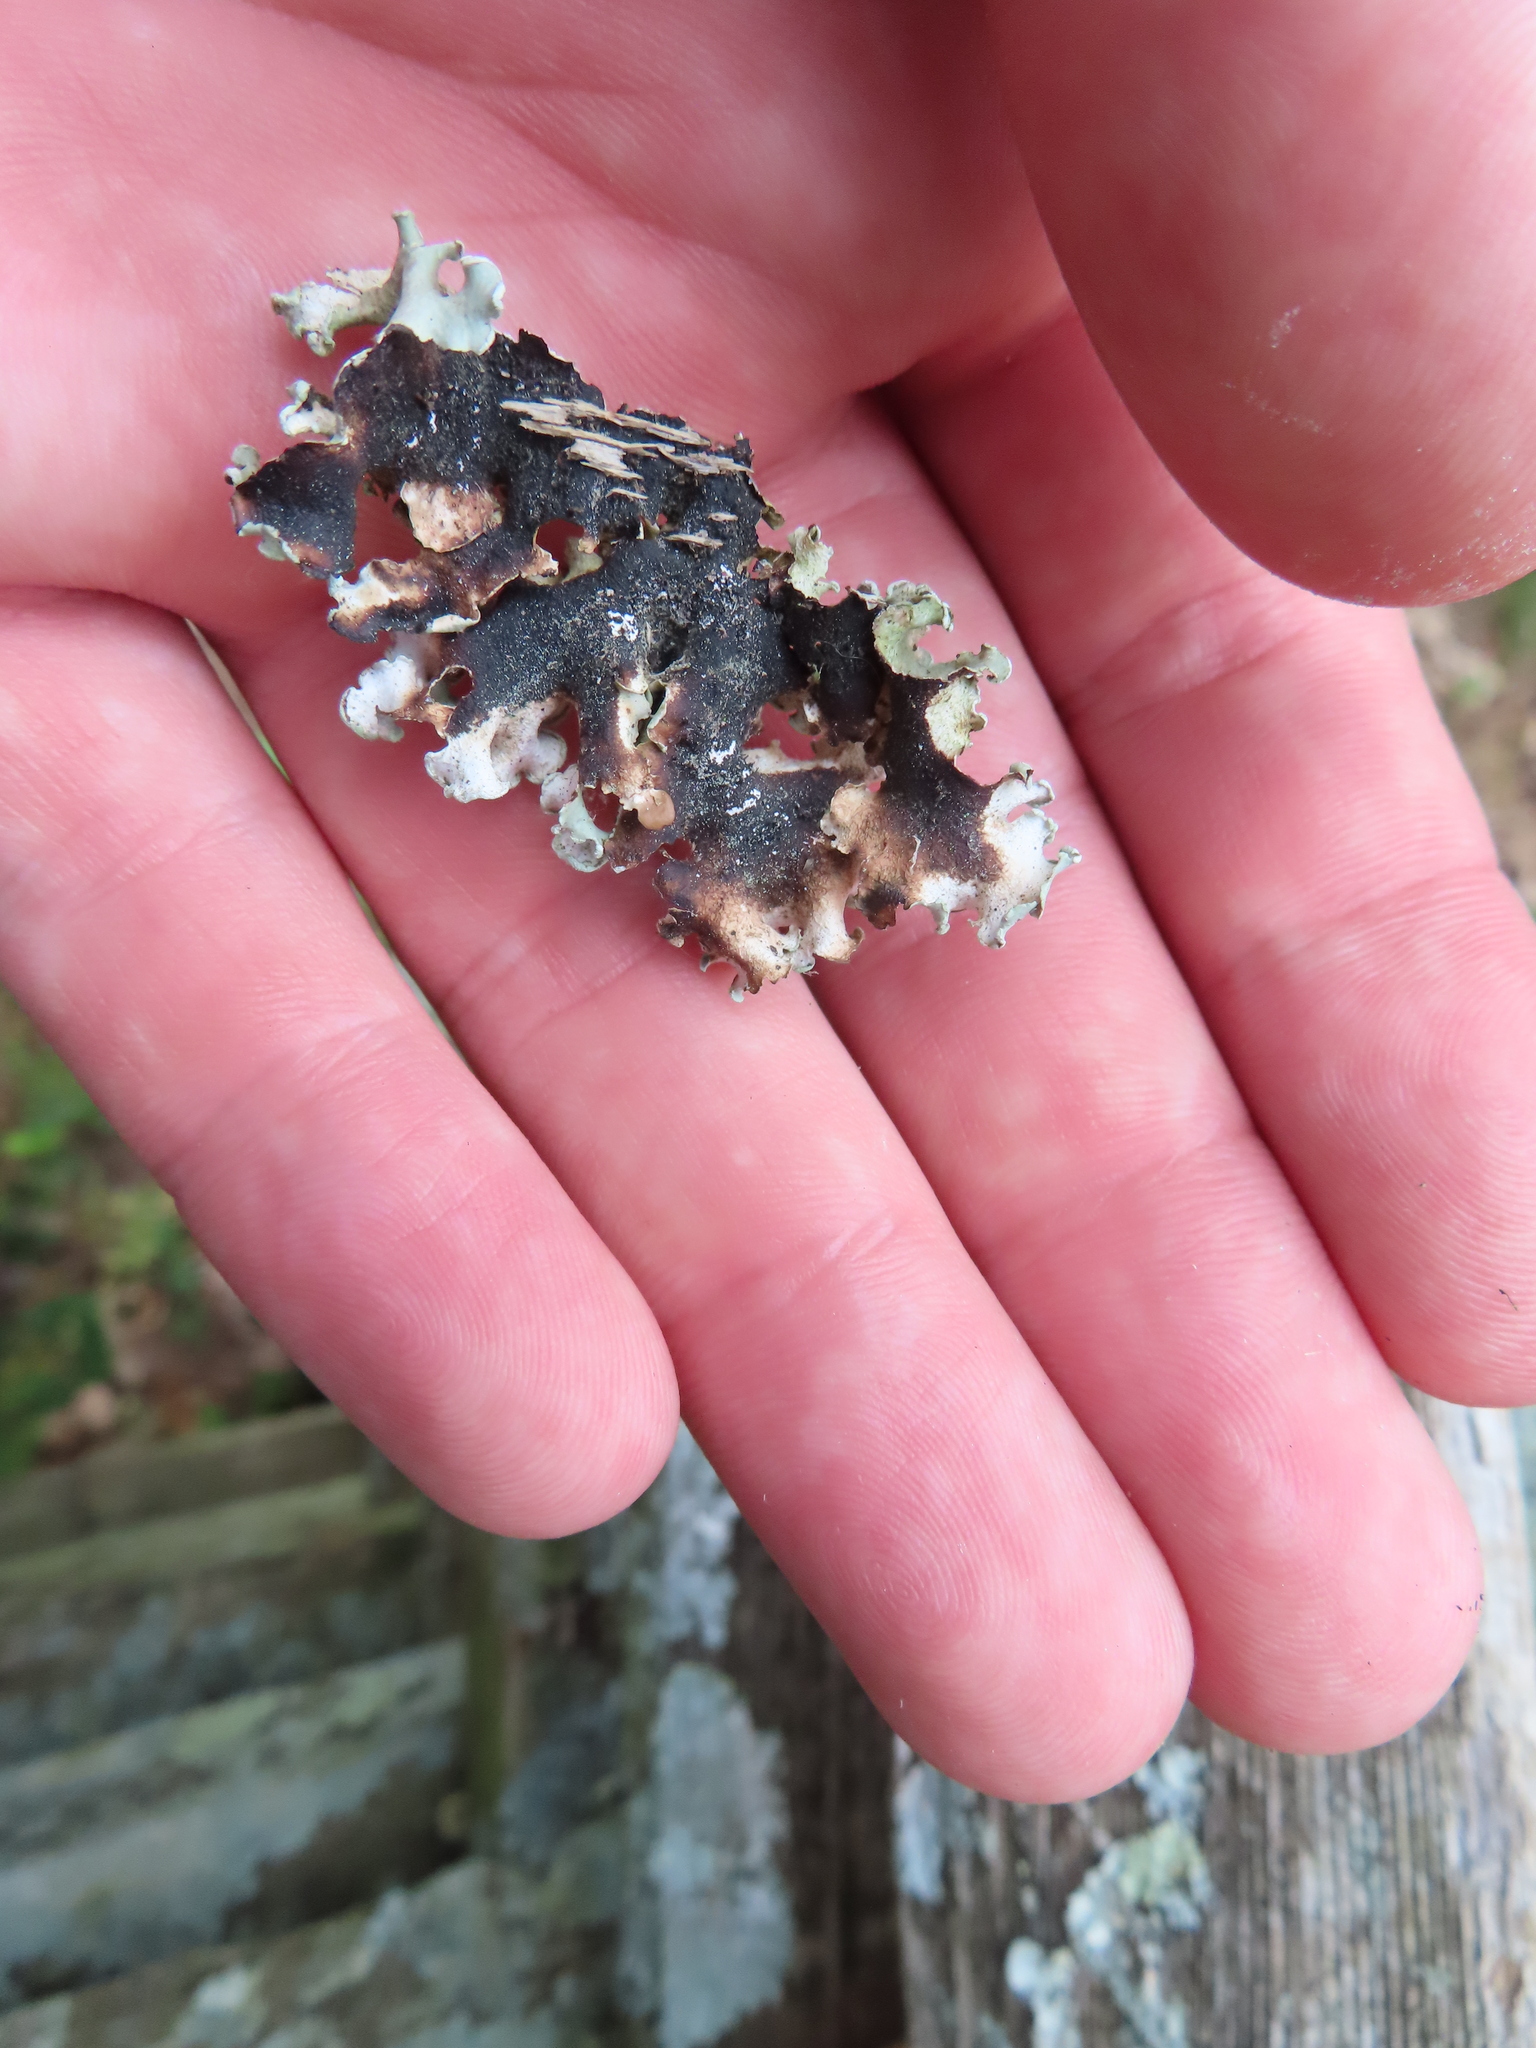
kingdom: Fungi
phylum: Ascomycota
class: Lecanoromycetes
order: Lecanorales
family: Parmeliaceae
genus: Parmotrema
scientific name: Parmotrema austrosinense
